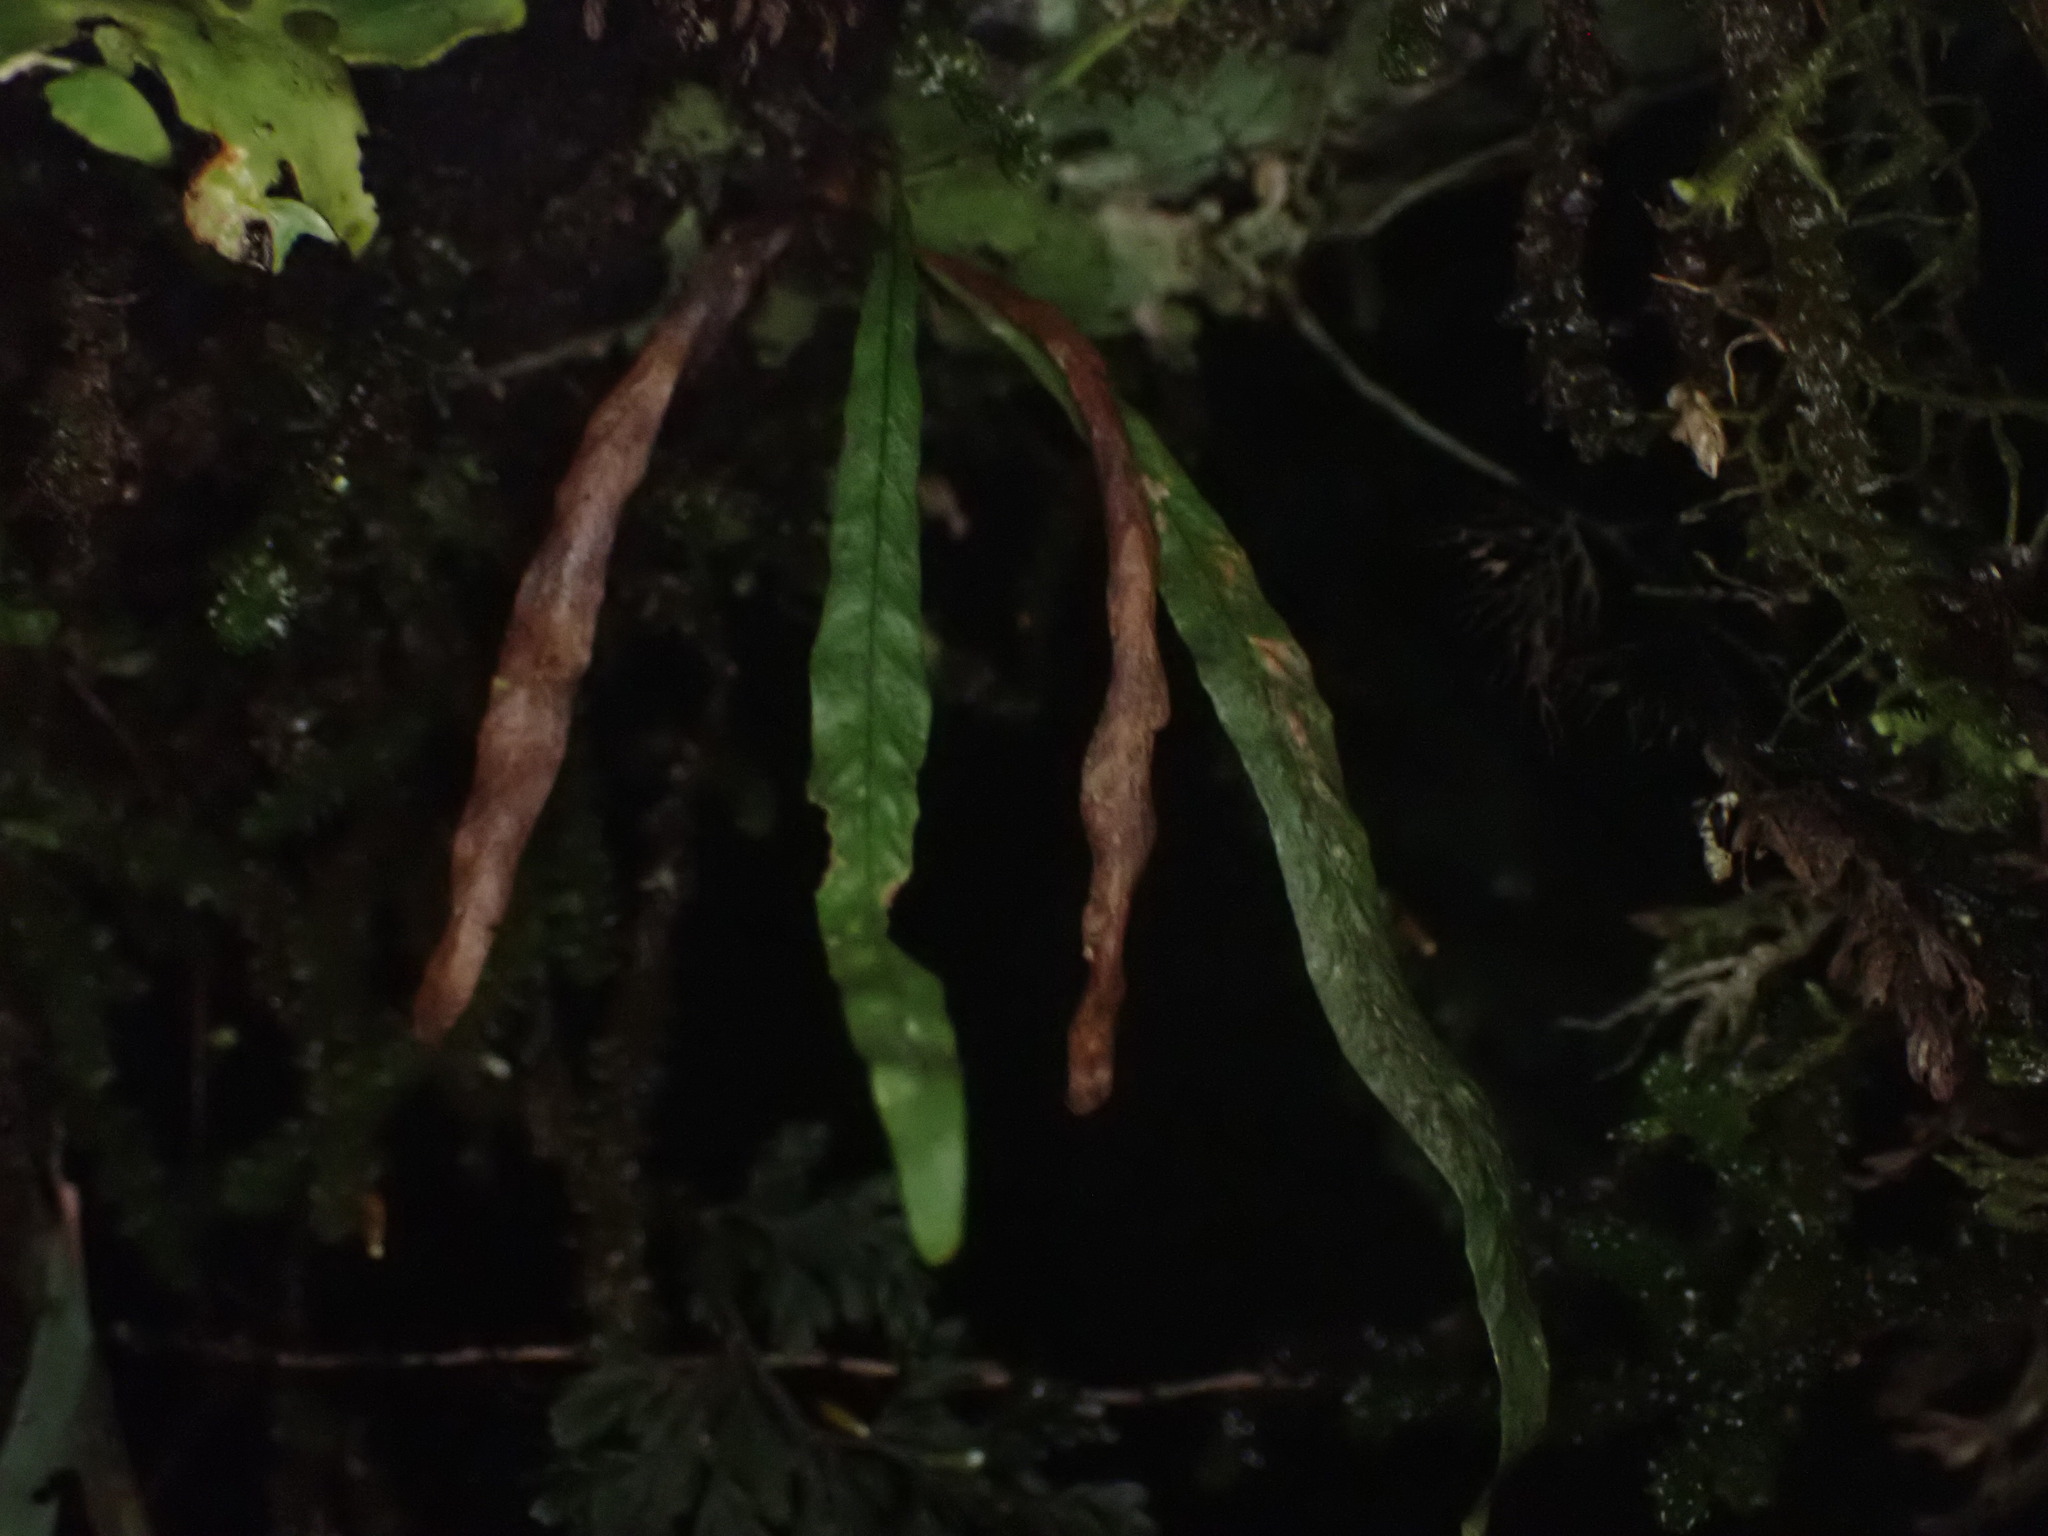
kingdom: Plantae
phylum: Tracheophyta
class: Polypodiopsida
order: Polypodiales
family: Polypodiaceae
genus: Notogrammitis
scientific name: Notogrammitis angustifolia
